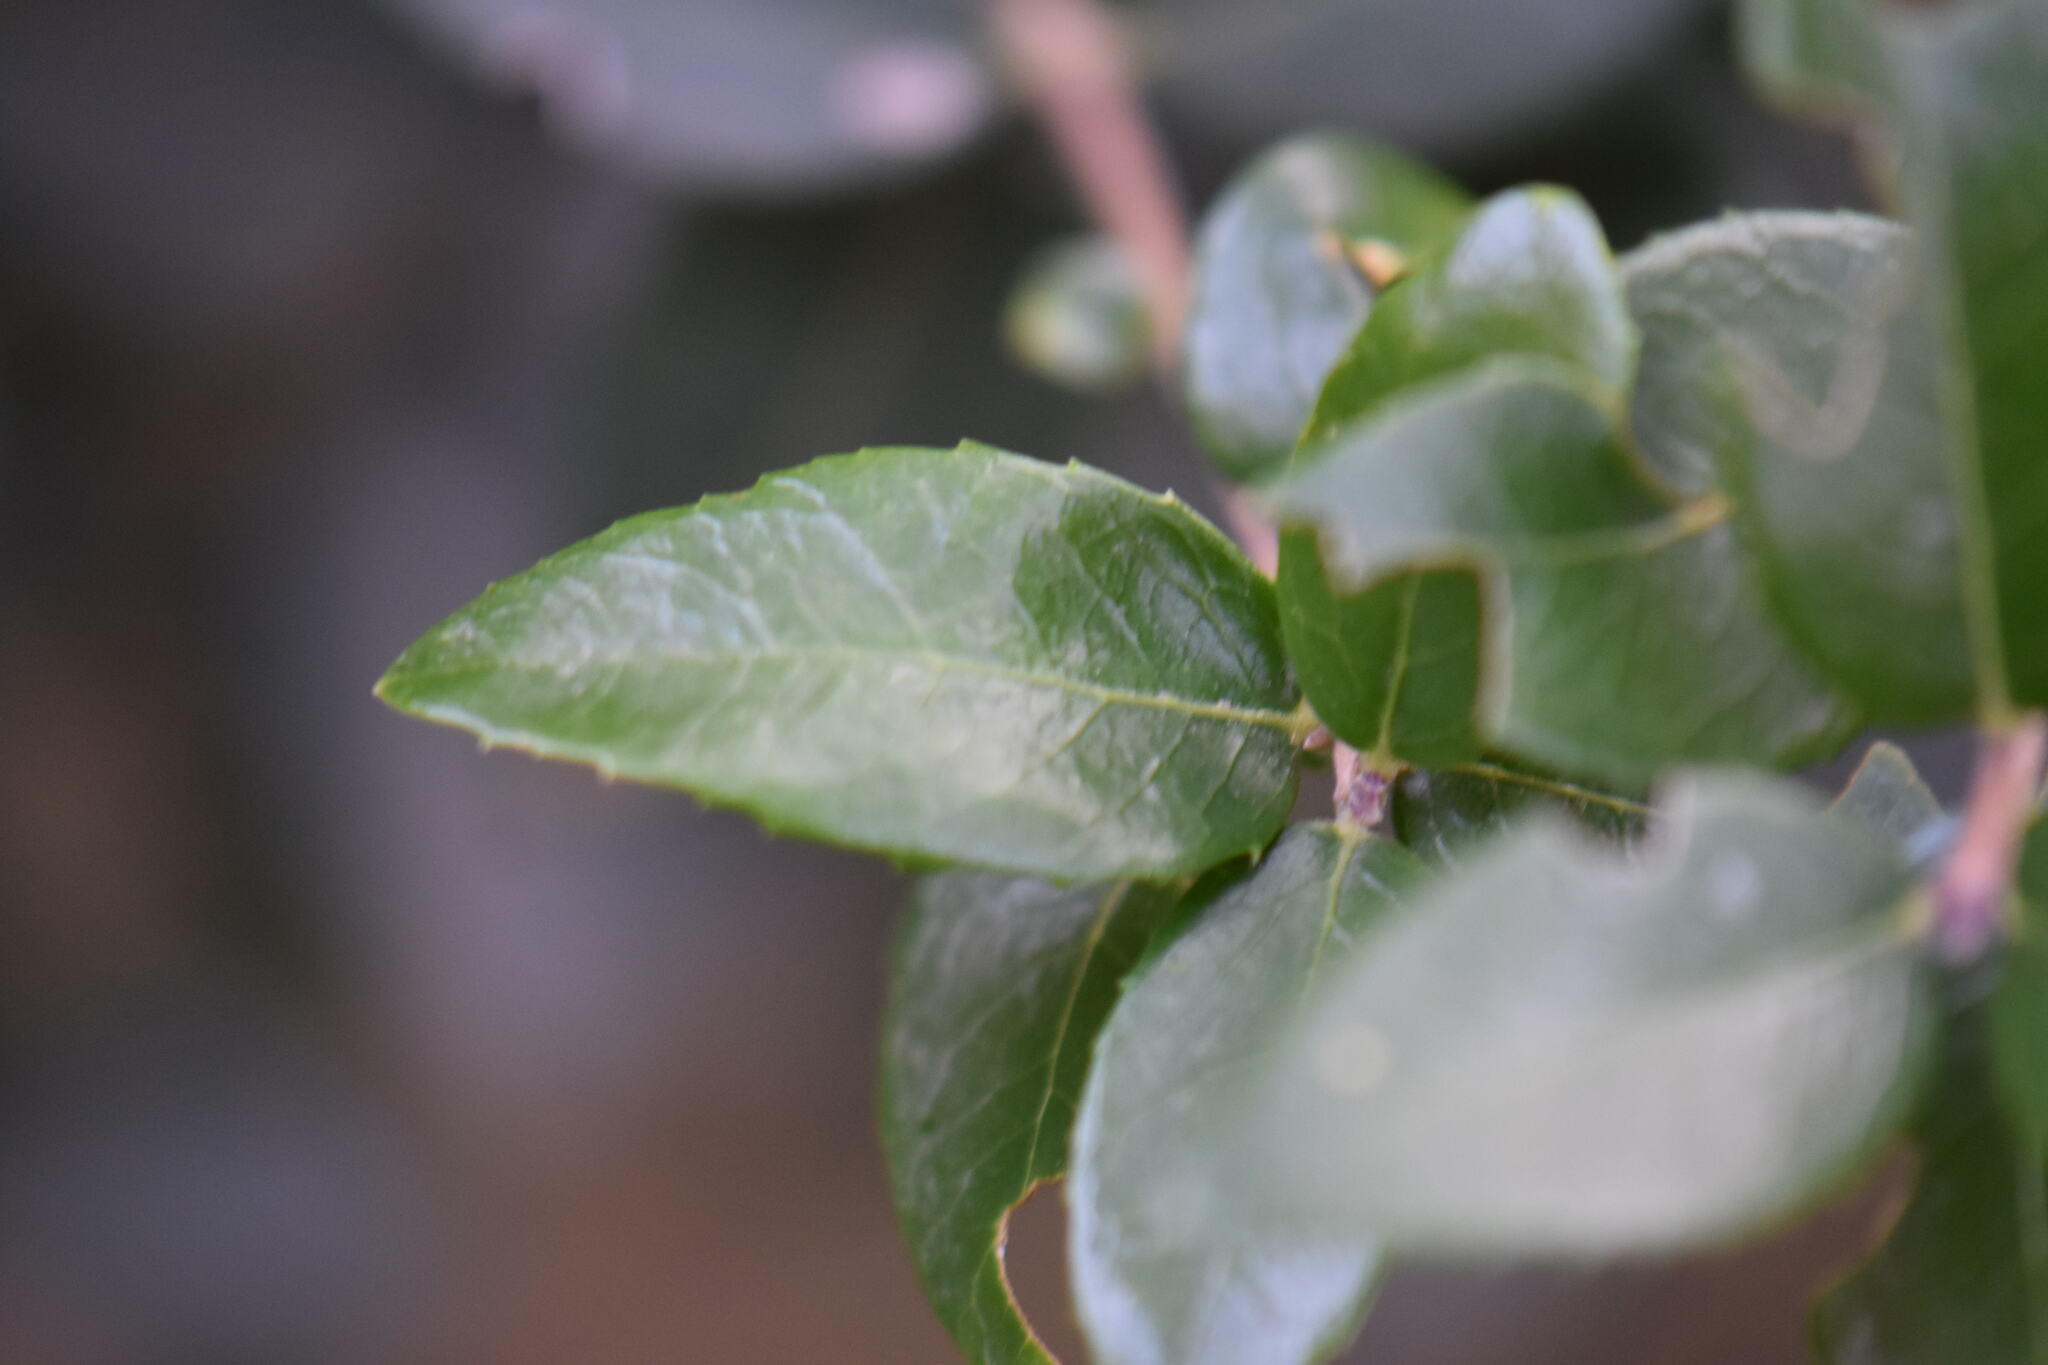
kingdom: Plantae
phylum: Tracheophyta
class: Magnoliopsida
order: Lamiales
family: Oleaceae
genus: Phillyrea
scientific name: Phillyrea latifolia
